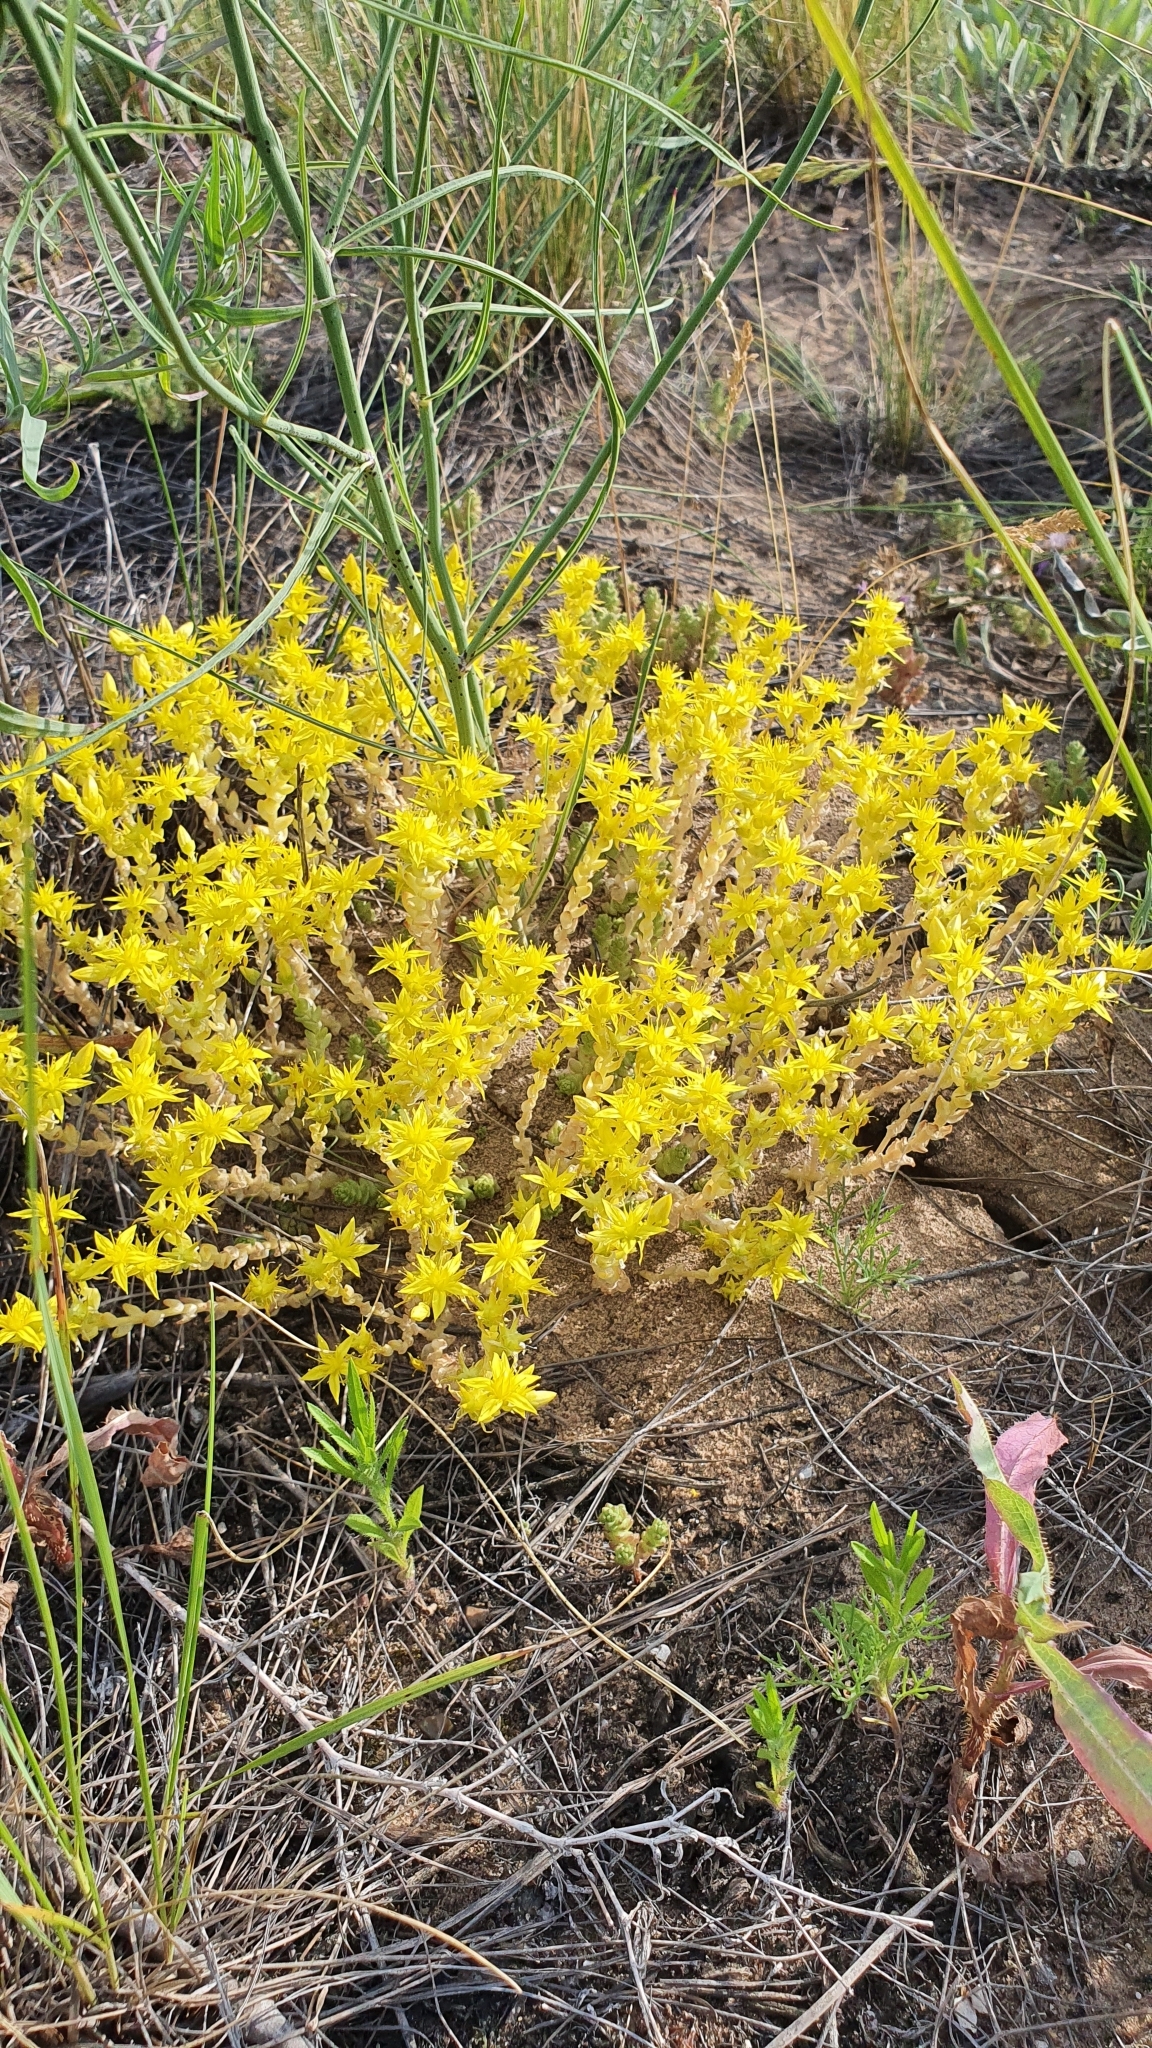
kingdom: Plantae
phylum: Tracheophyta
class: Magnoliopsida
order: Saxifragales
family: Crassulaceae
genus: Sedum
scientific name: Sedum acre
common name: Biting stonecrop
